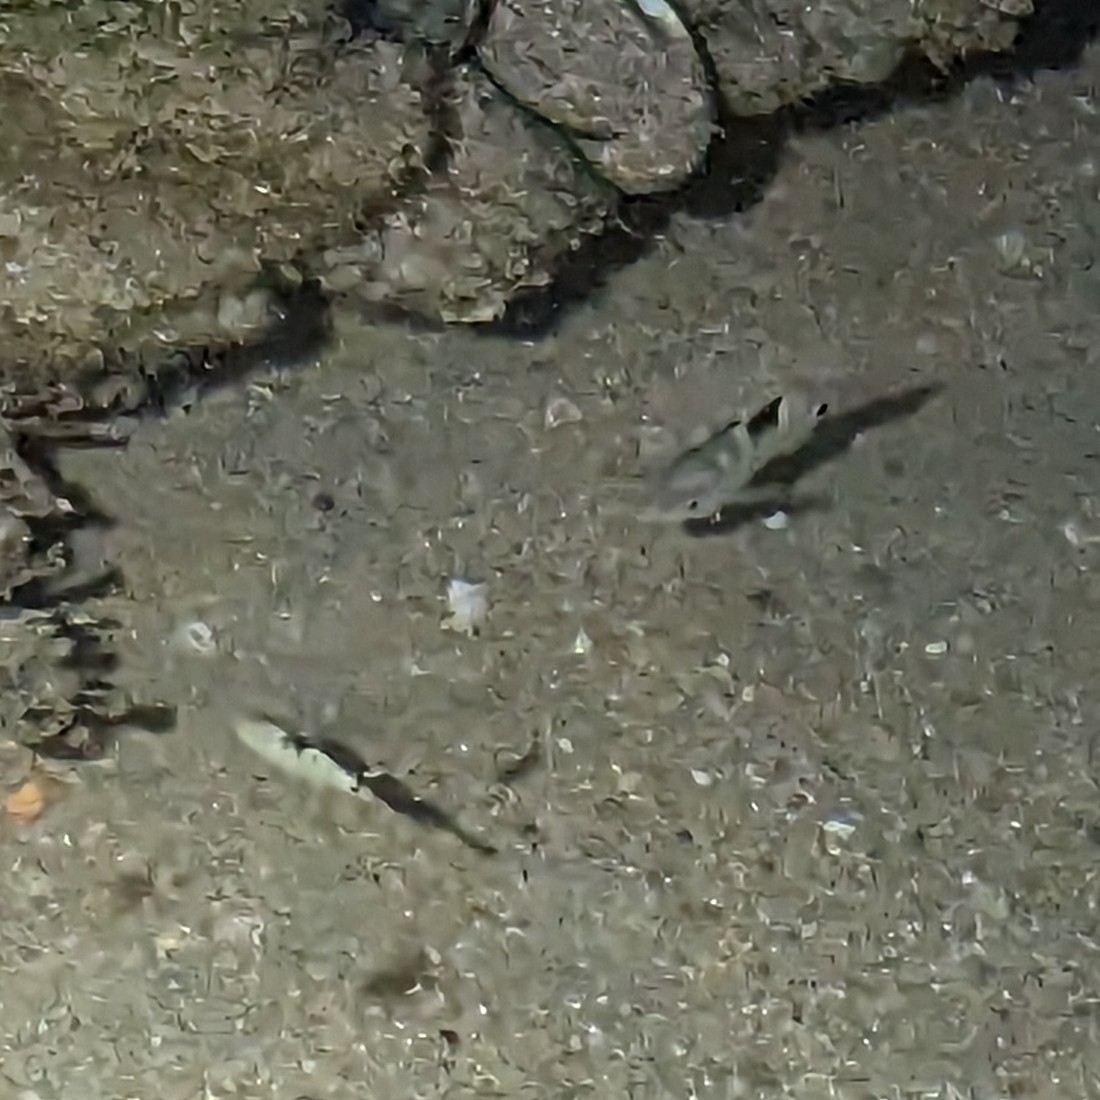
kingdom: Animalia
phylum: Chordata
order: Perciformes
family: Pomacentridae
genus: Abudefduf
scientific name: Abudefduf sordidus
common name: Blackspot sergeant
